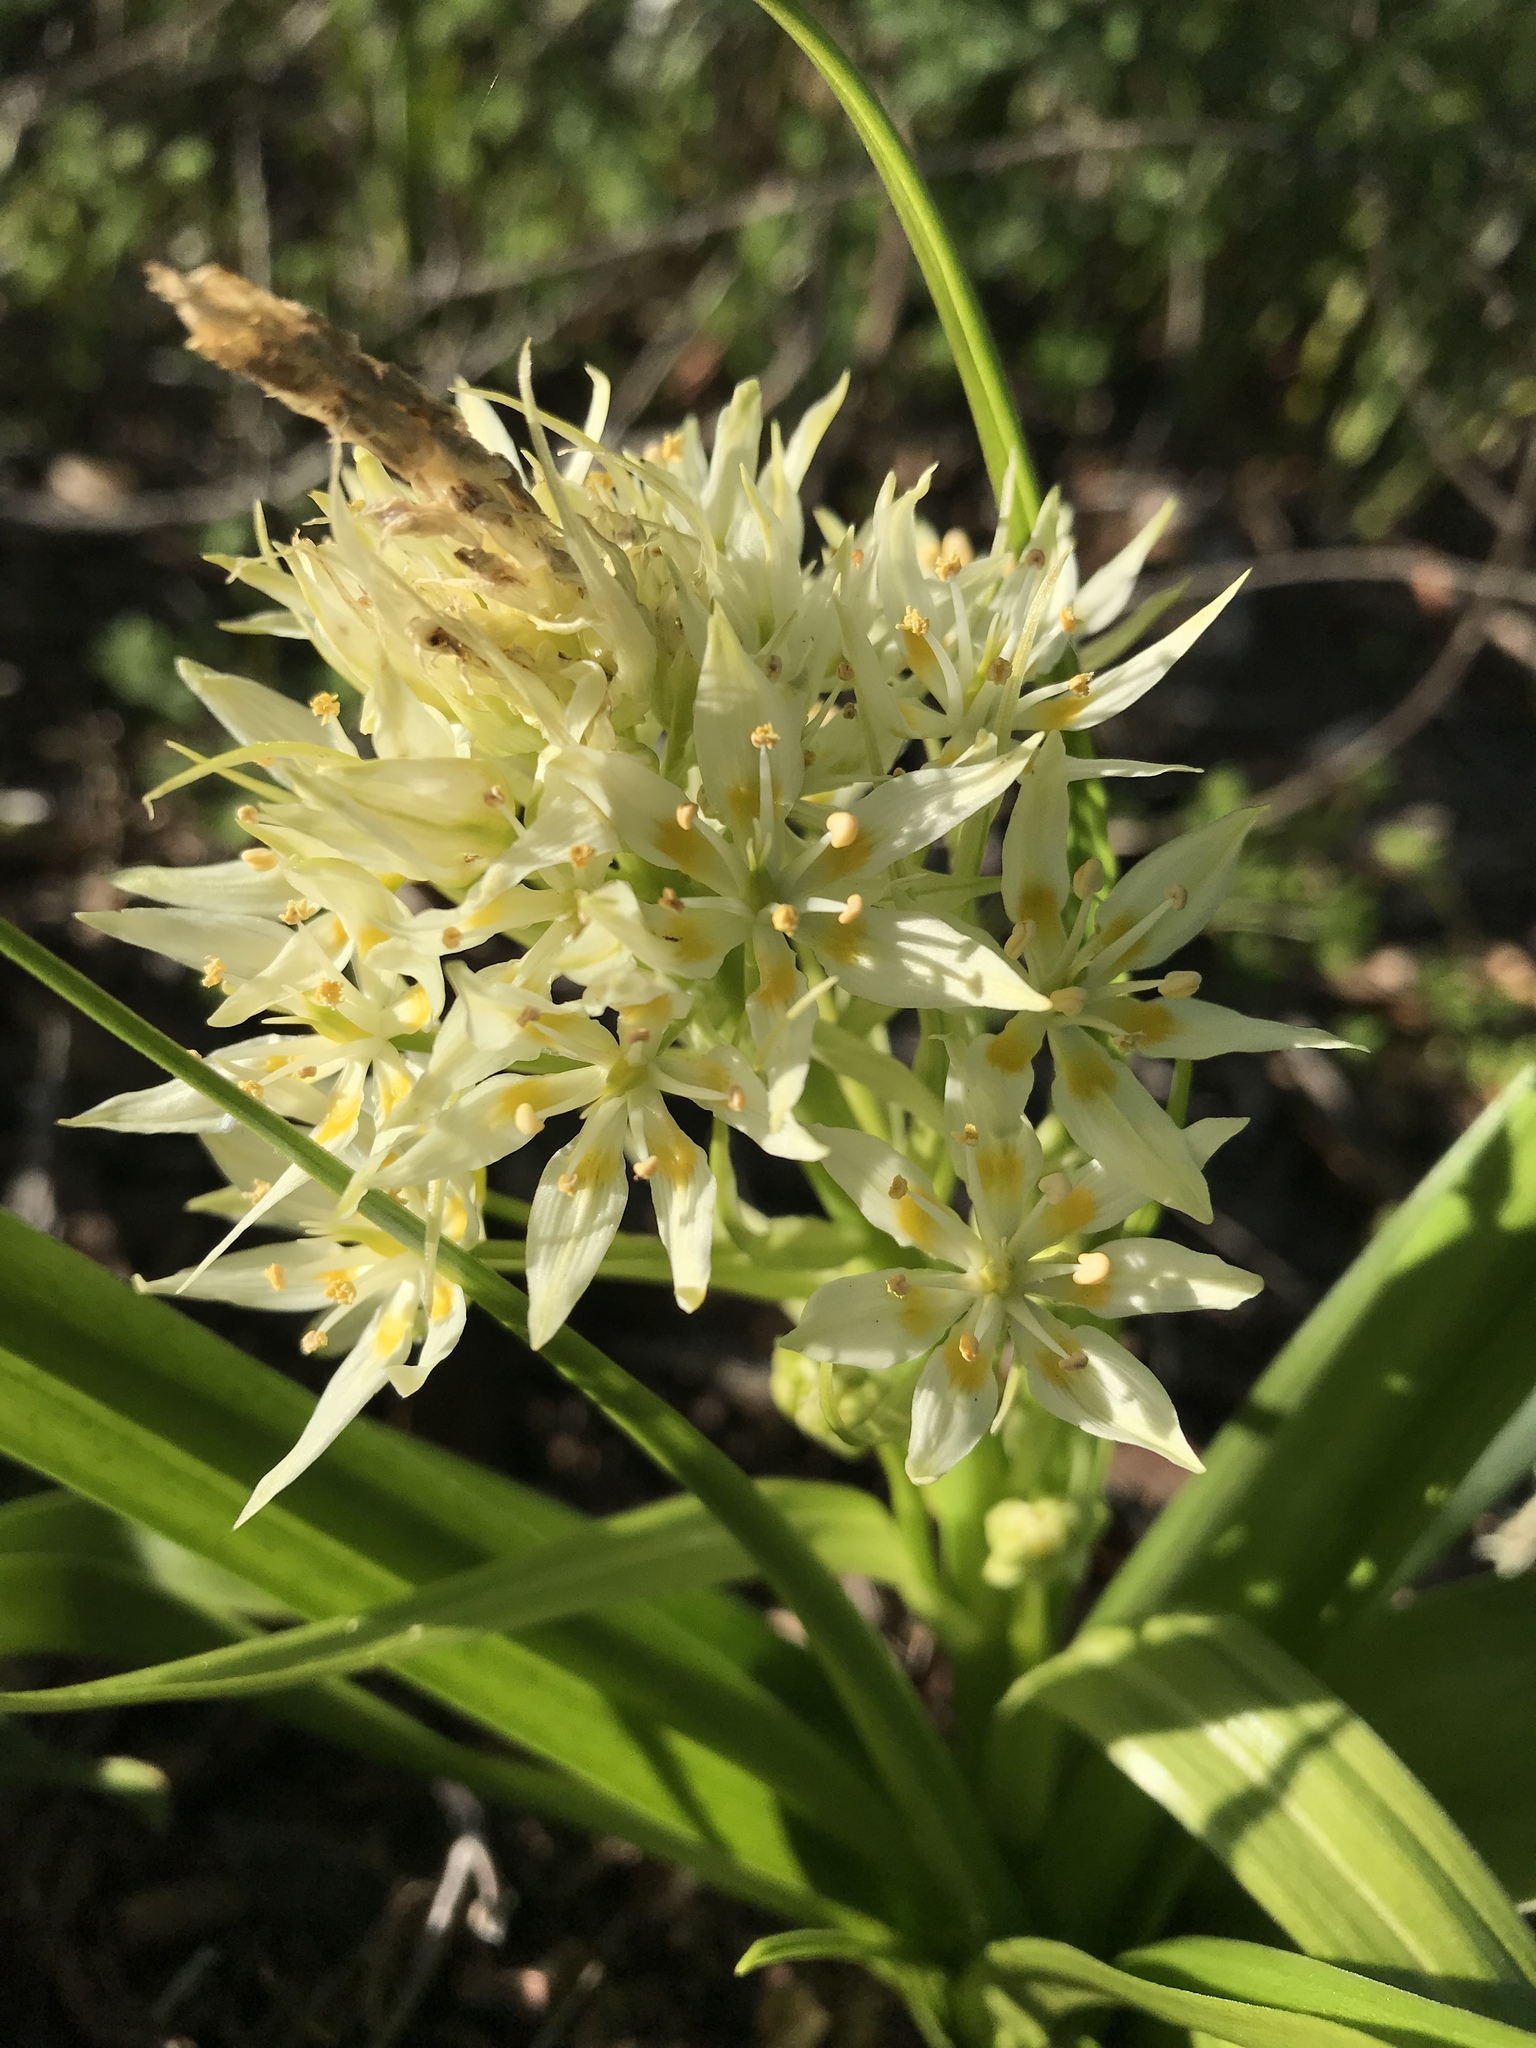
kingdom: Plantae
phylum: Tracheophyta
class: Liliopsida
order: Liliales
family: Melanthiaceae
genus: Toxicoscordion
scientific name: Toxicoscordion fremontii
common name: Fremont's death camas
